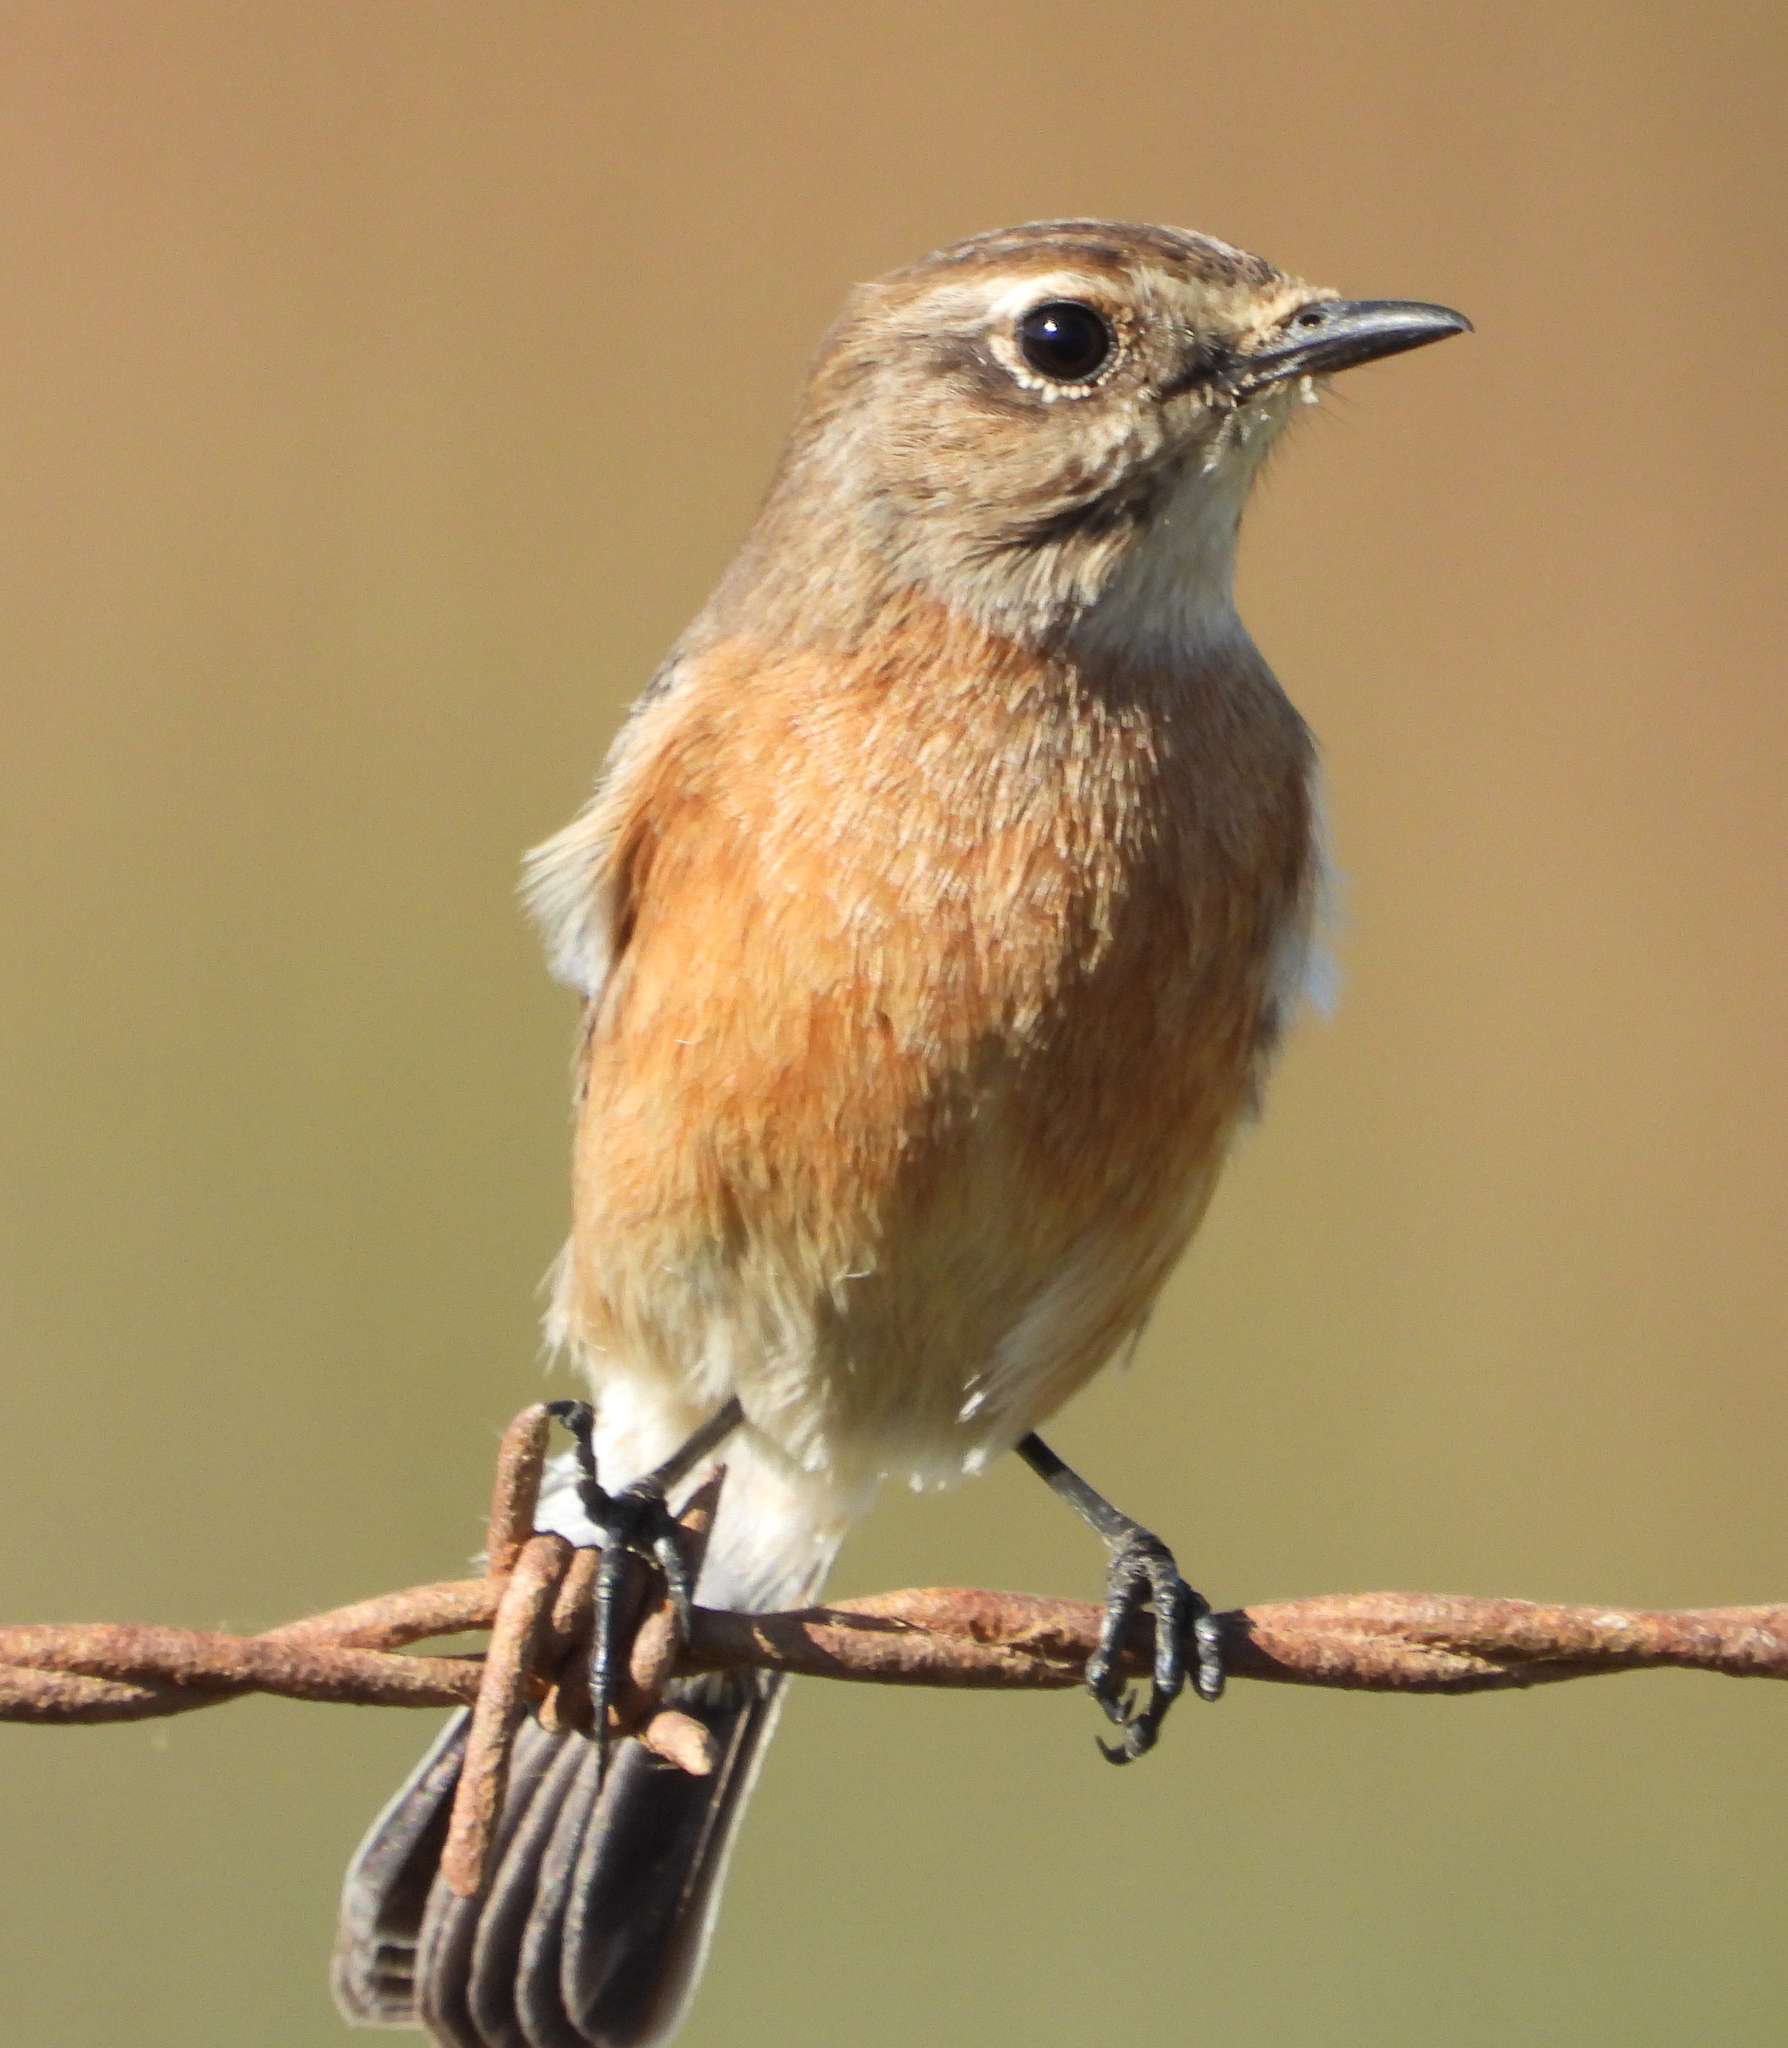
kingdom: Animalia
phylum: Chordata
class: Aves
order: Passeriformes
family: Muscicapidae
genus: Saxicola
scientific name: Saxicola torquatus
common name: African stonechat
